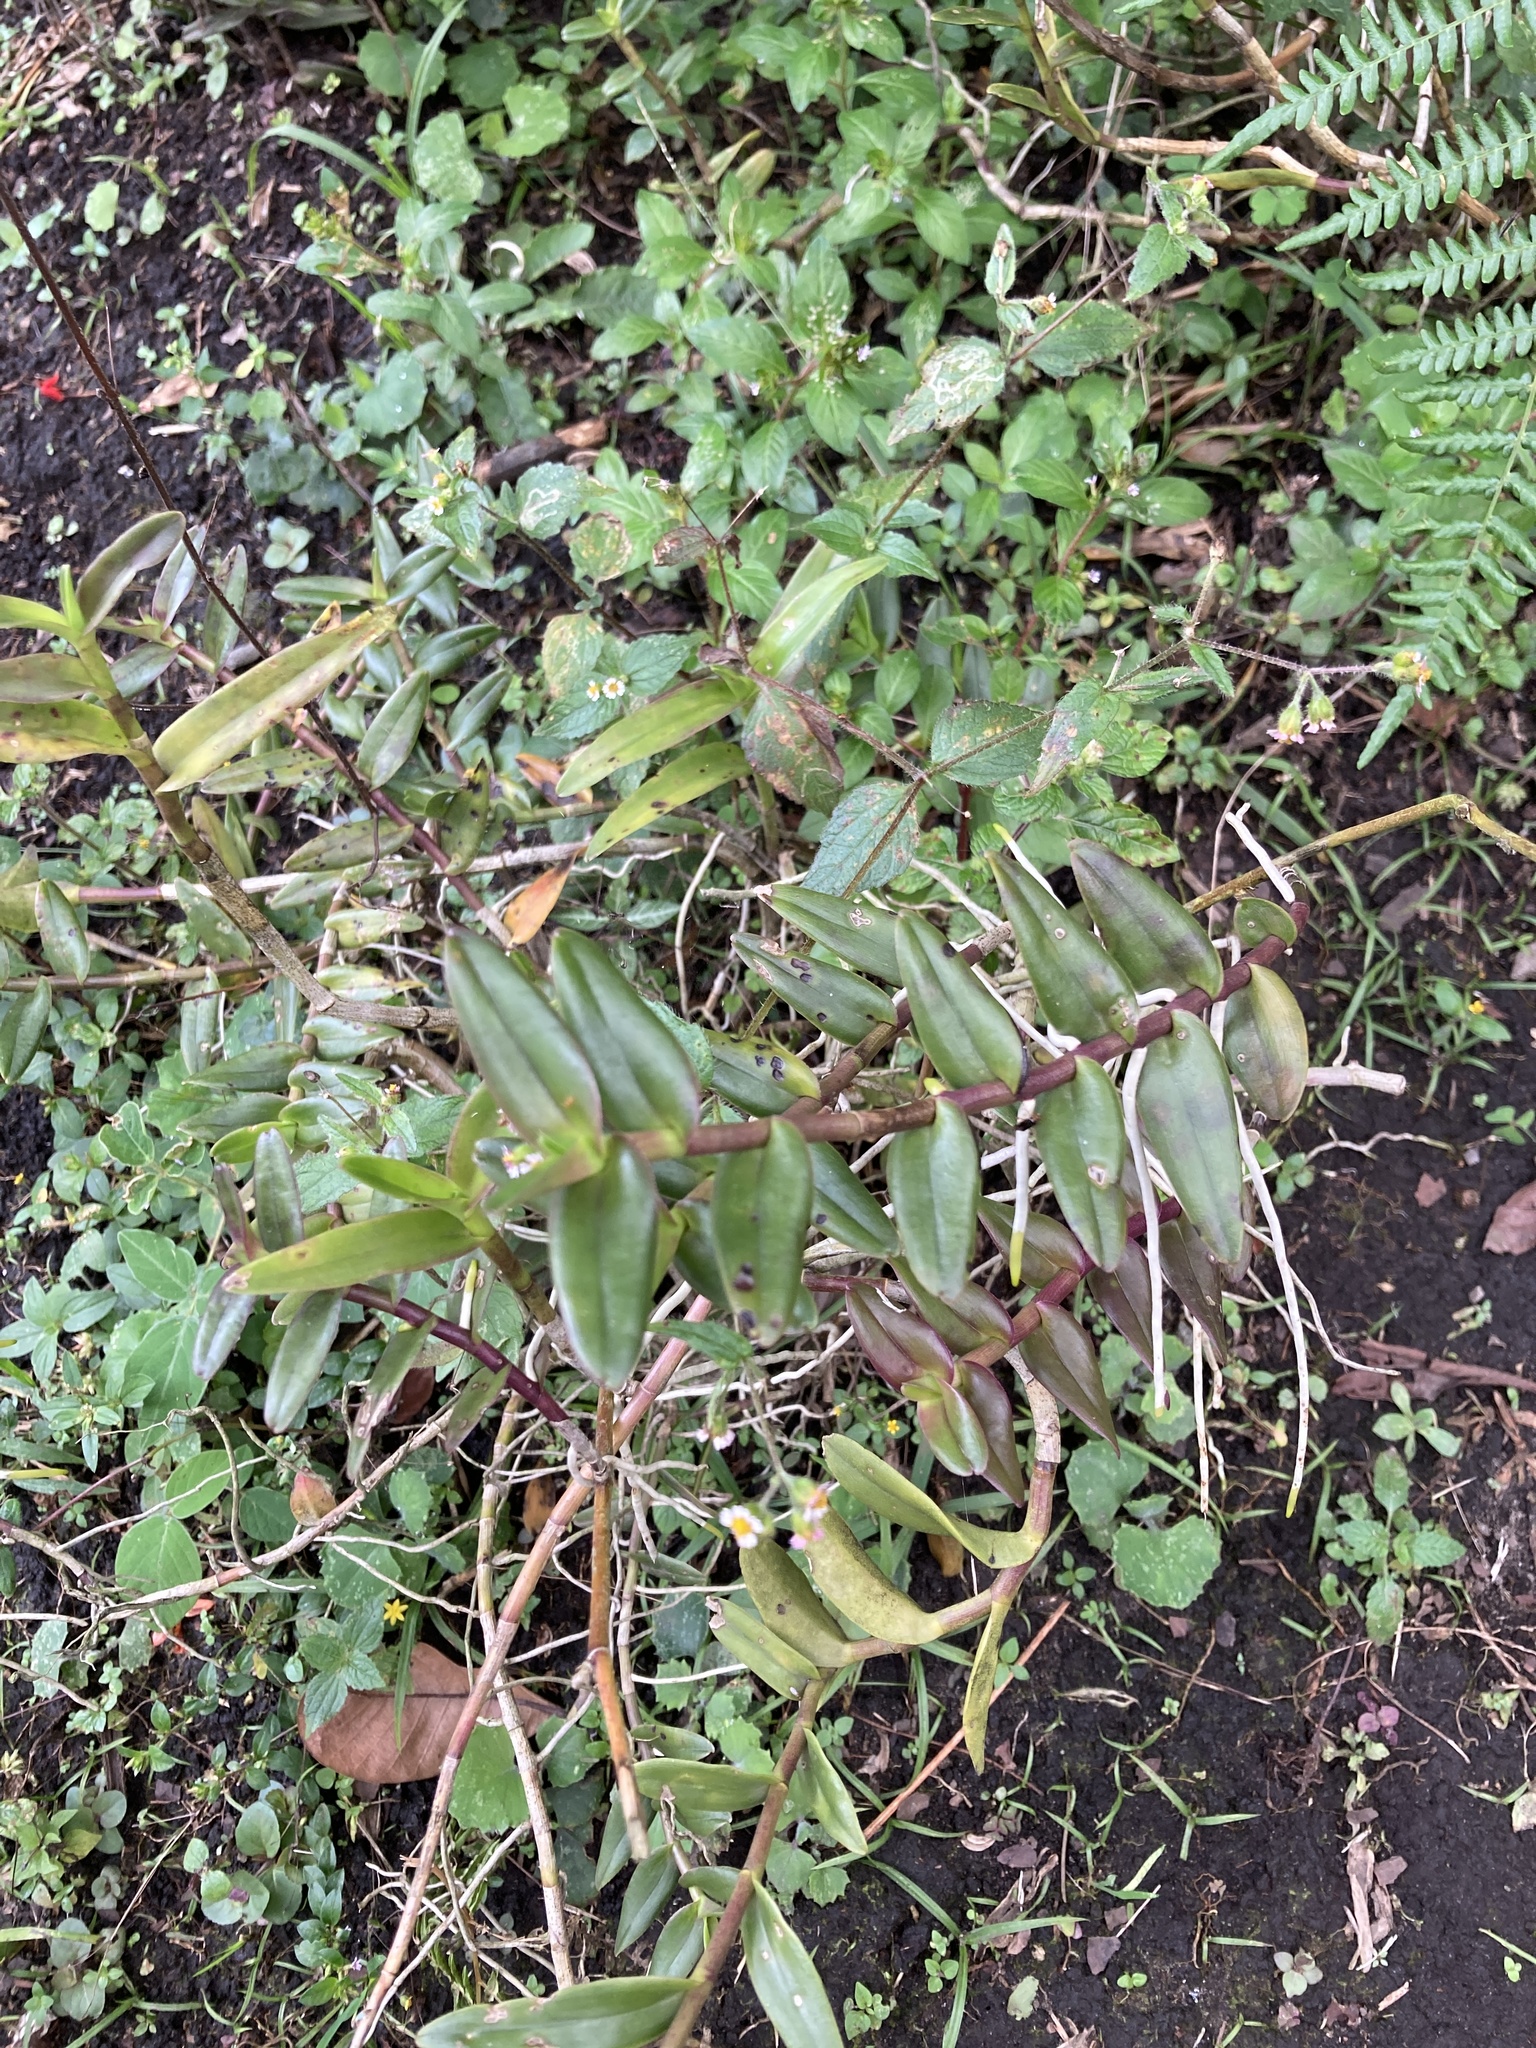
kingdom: Plantae
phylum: Tracheophyta
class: Liliopsida
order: Asparagales
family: Orchidaceae
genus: Epidendrum
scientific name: Epidendrum radicans
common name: Fire star orchid
